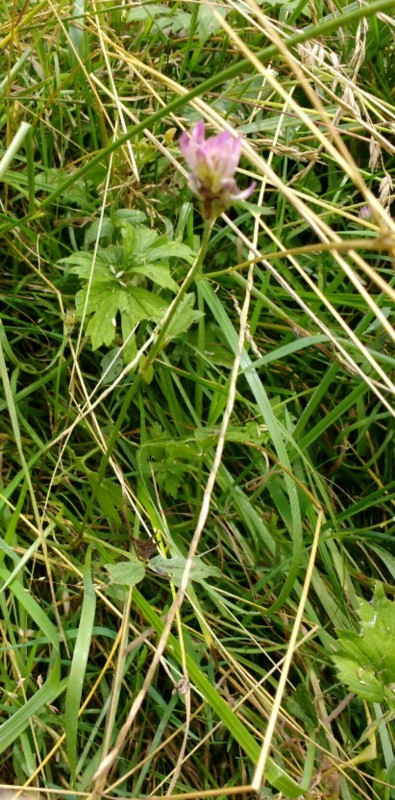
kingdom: Plantae
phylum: Tracheophyta
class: Magnoliopsida
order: Fabales
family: Fabaceae
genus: Trifolium
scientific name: Trifolium pratense
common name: Red clover
